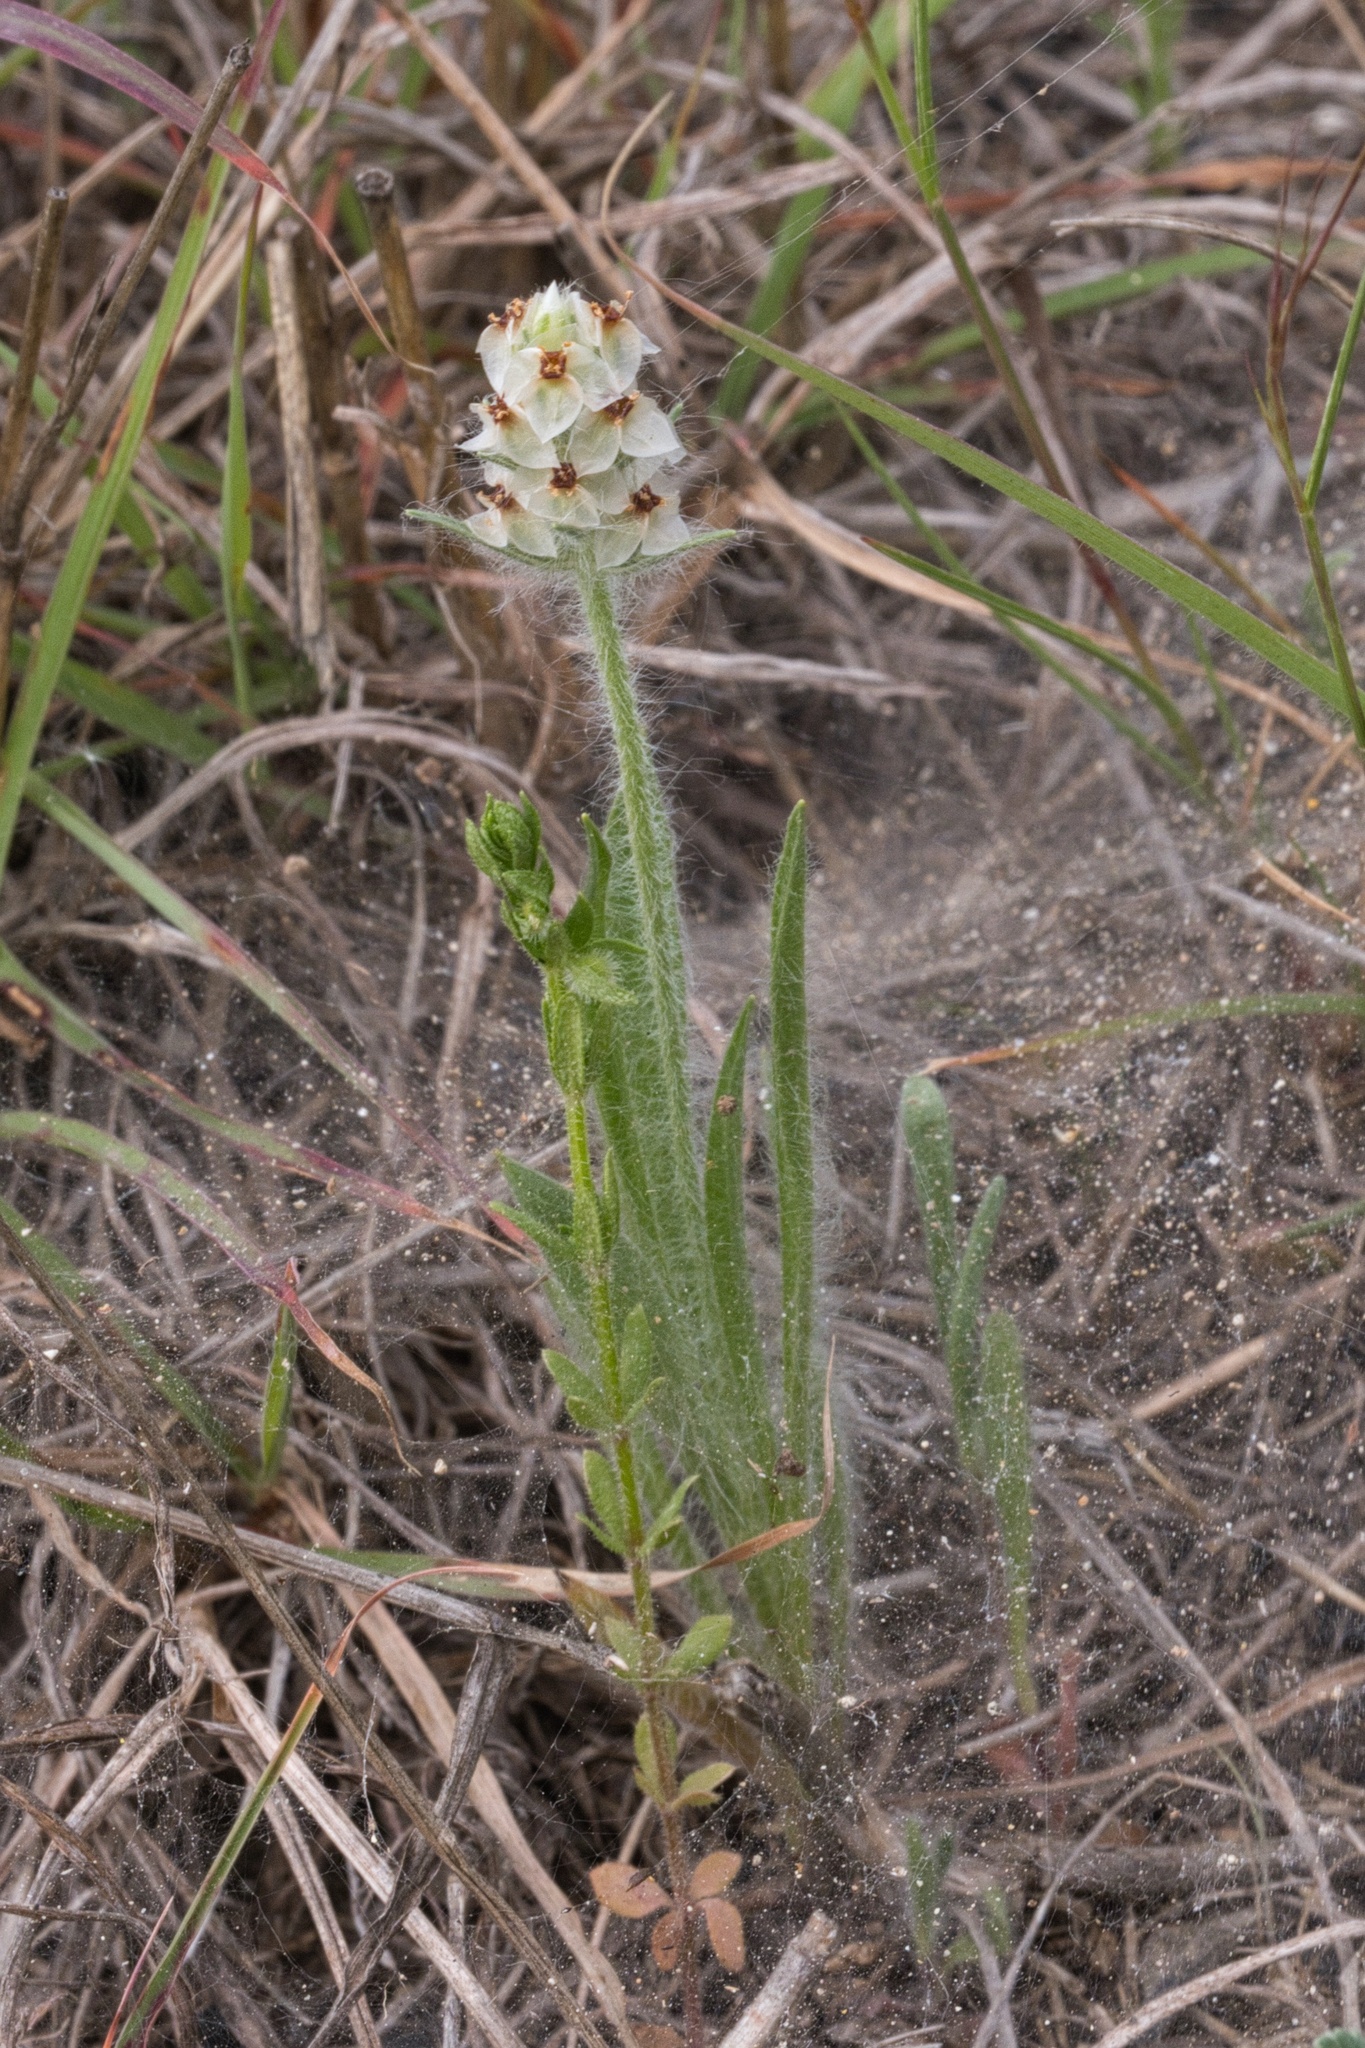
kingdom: Plantae
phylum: Tracheophyta
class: Magnoliopsida
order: Lamiales
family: Plantaginaceae
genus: Plantago
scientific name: Plantago helleri
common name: Heller's plantain
